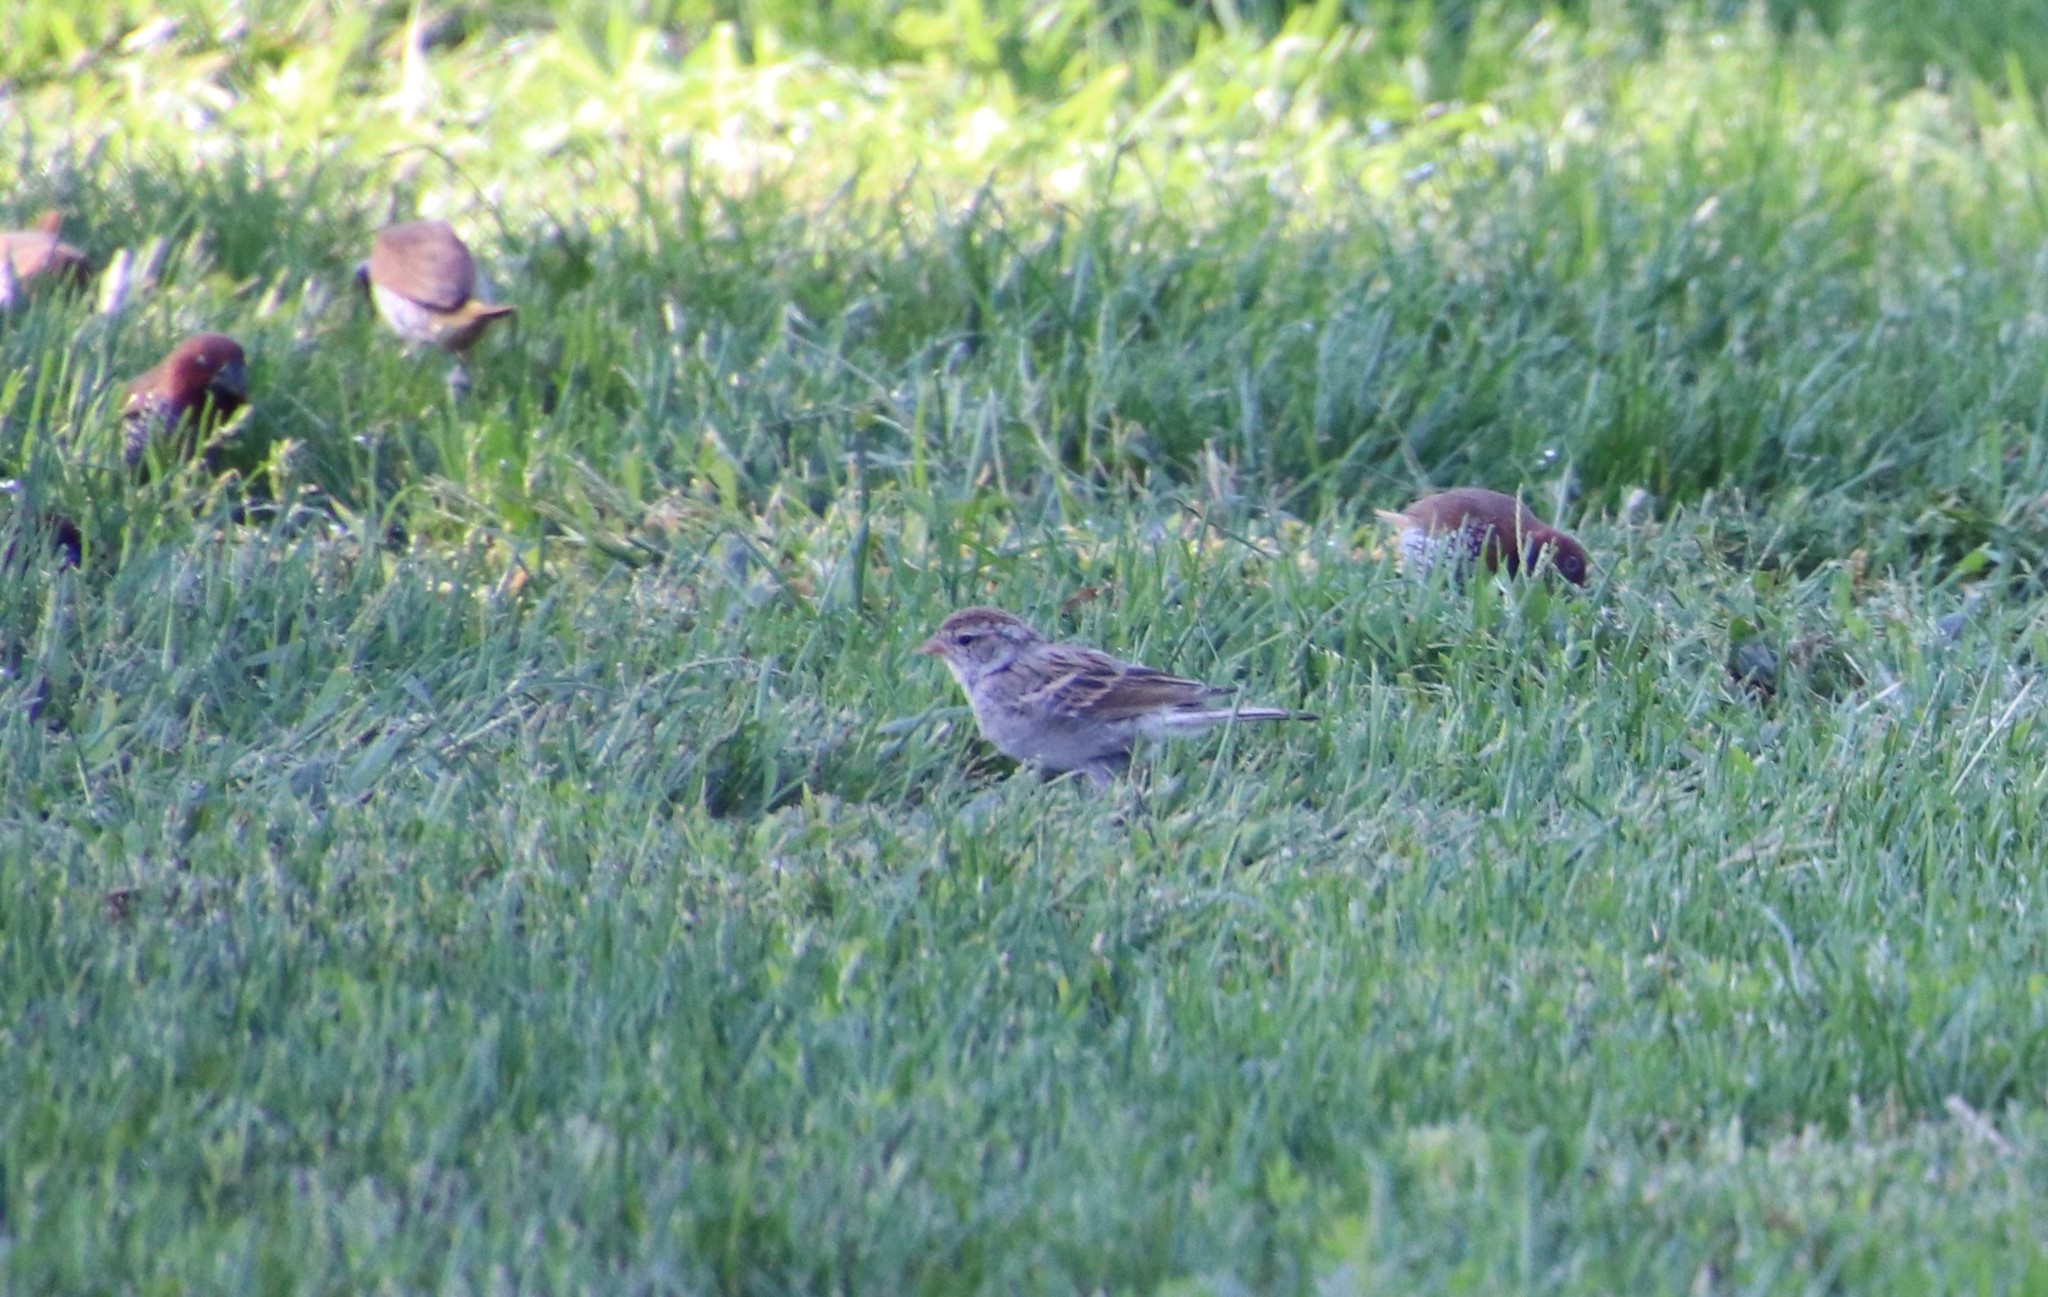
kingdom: Animalia
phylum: Chordata
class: Aves
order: Passeriformes
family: Passerellidae
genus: Spizella
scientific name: Spizella passerina
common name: Chipping sparrow
